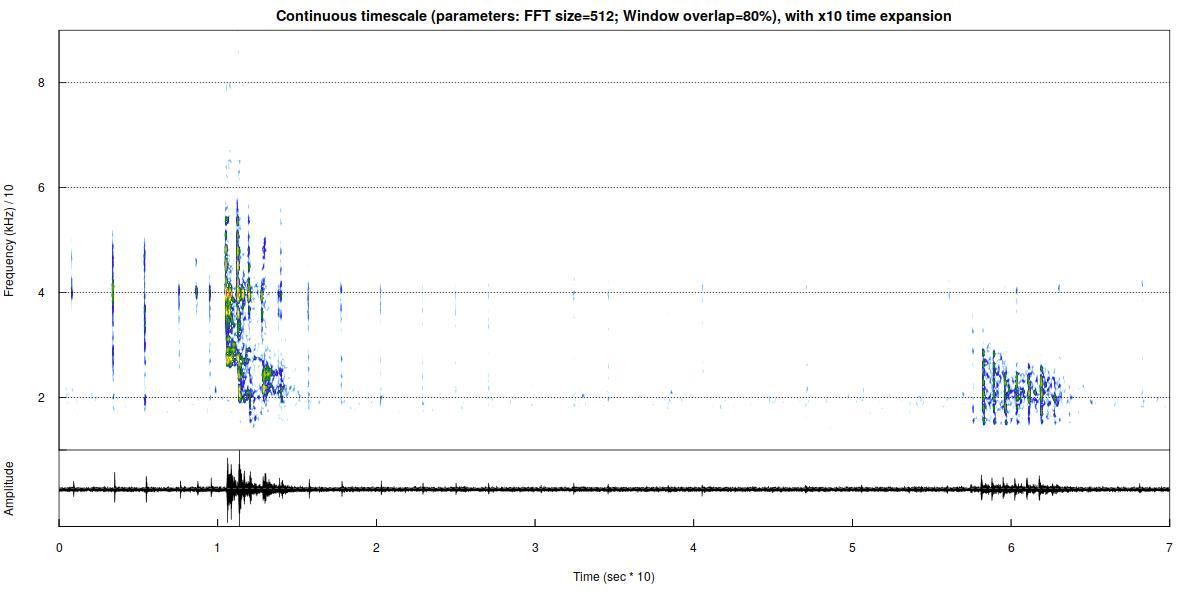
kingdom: Animalia
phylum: Chordata
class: Mammalia
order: Chiroptera
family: Vespertilionidae
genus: Myotis
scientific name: Myotis nattereri
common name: Natterer's bat
